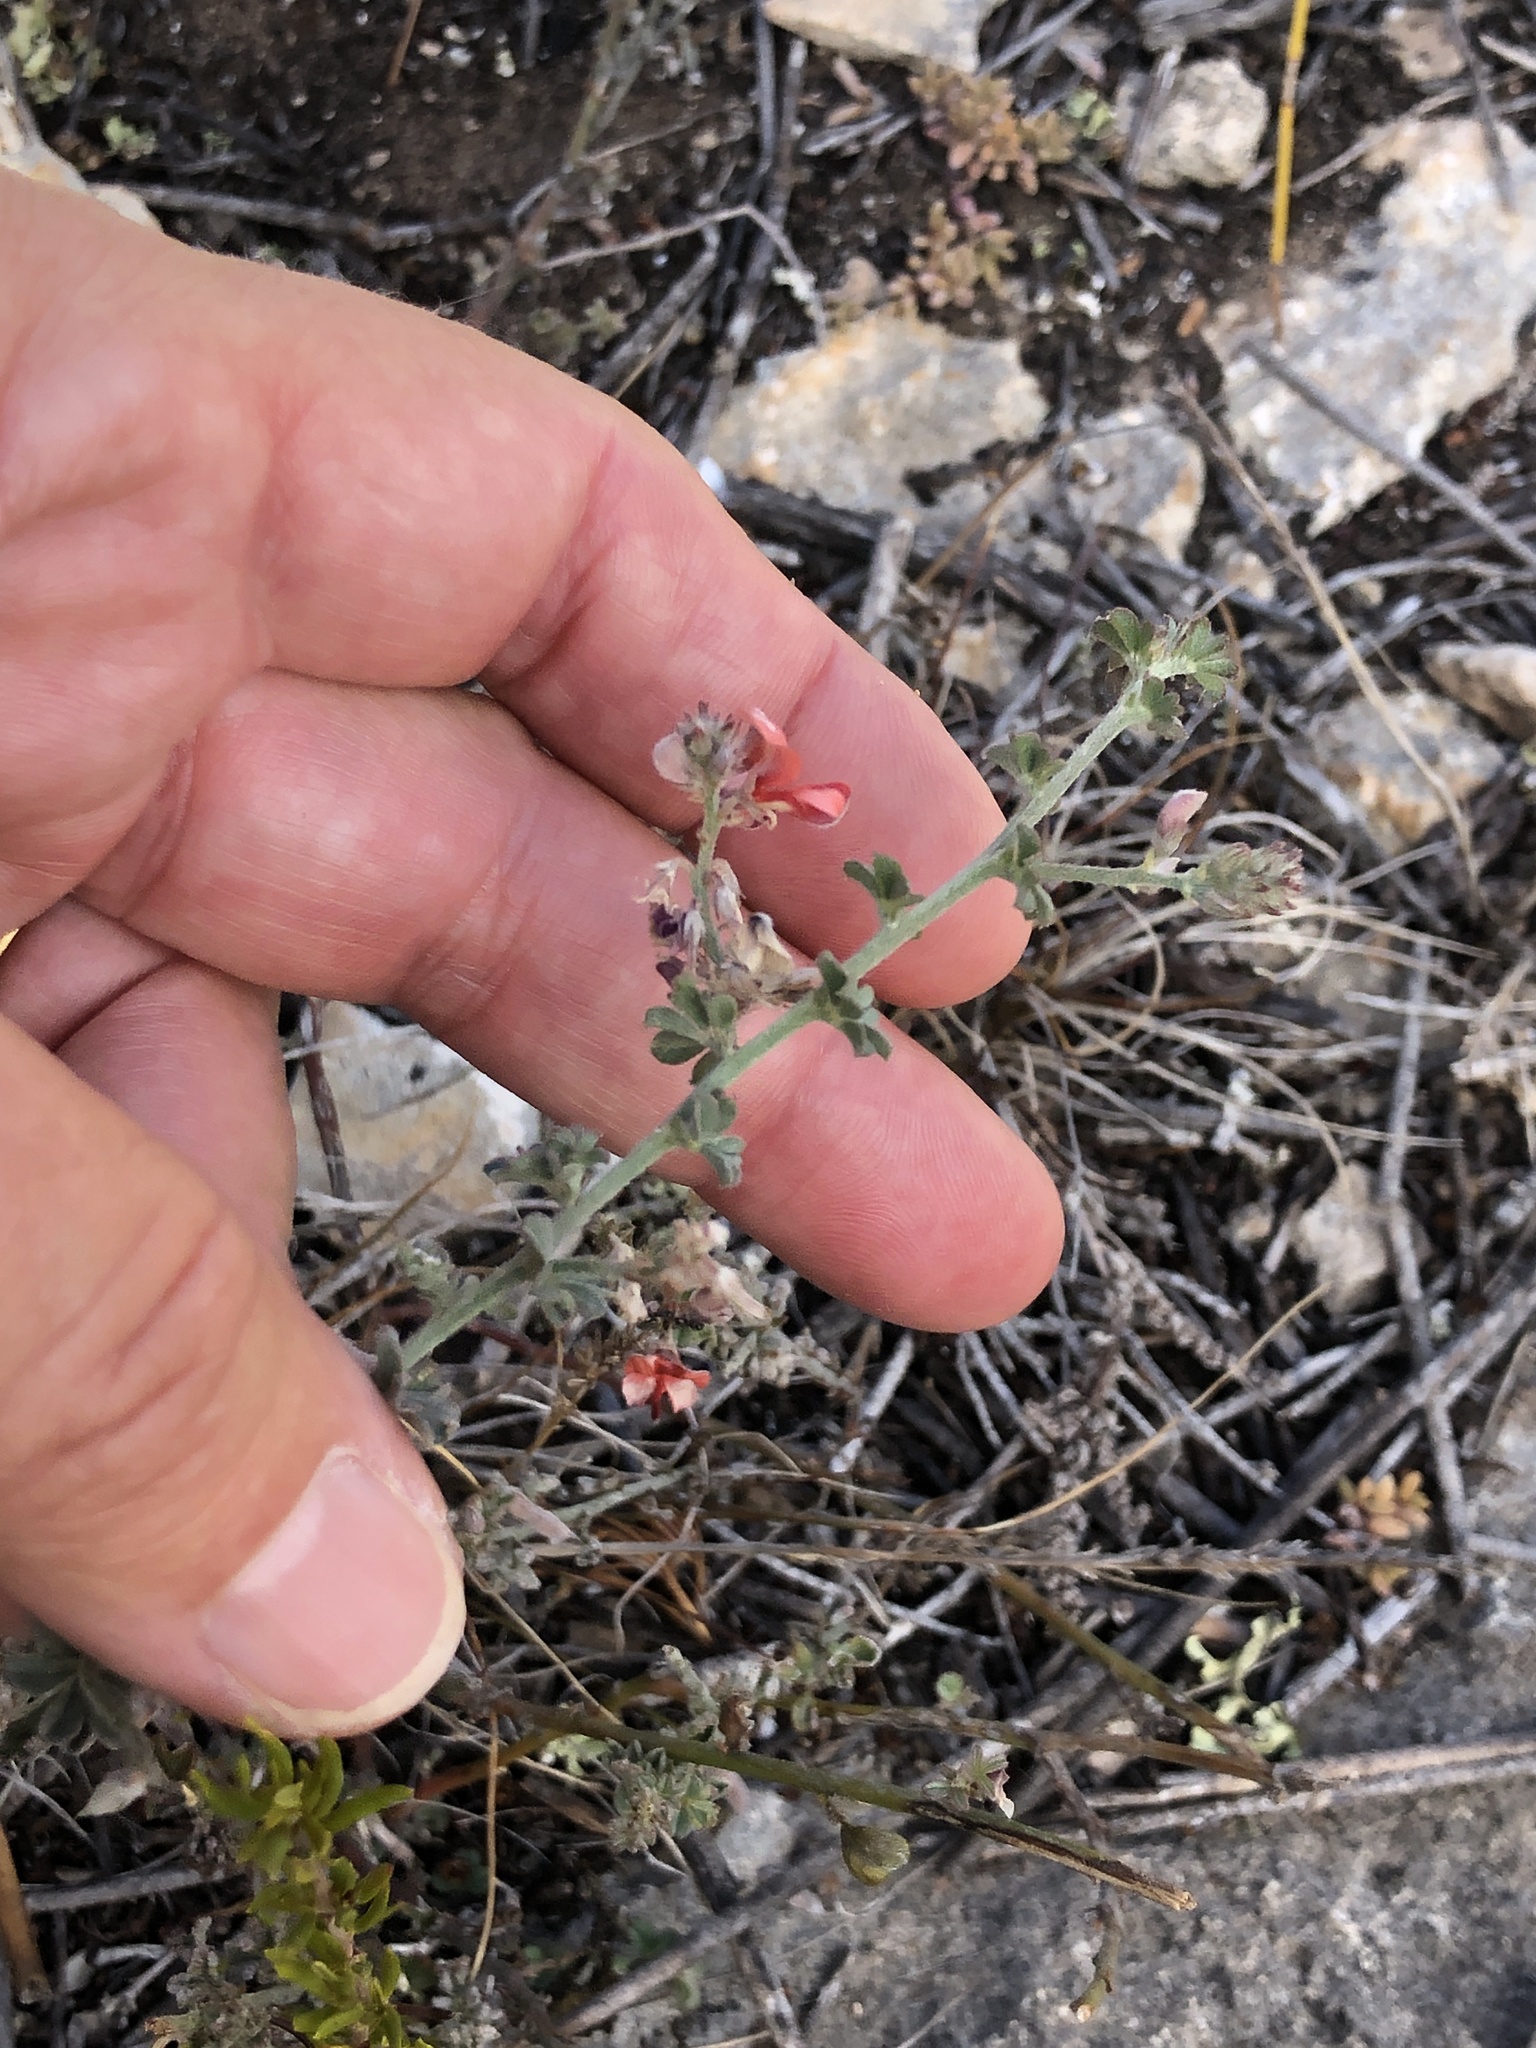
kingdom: Plantae
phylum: Tracheophyta
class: Magnoliopsida
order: Fabales
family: Fabaceae
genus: Indigofera
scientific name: Indigofera priorii
